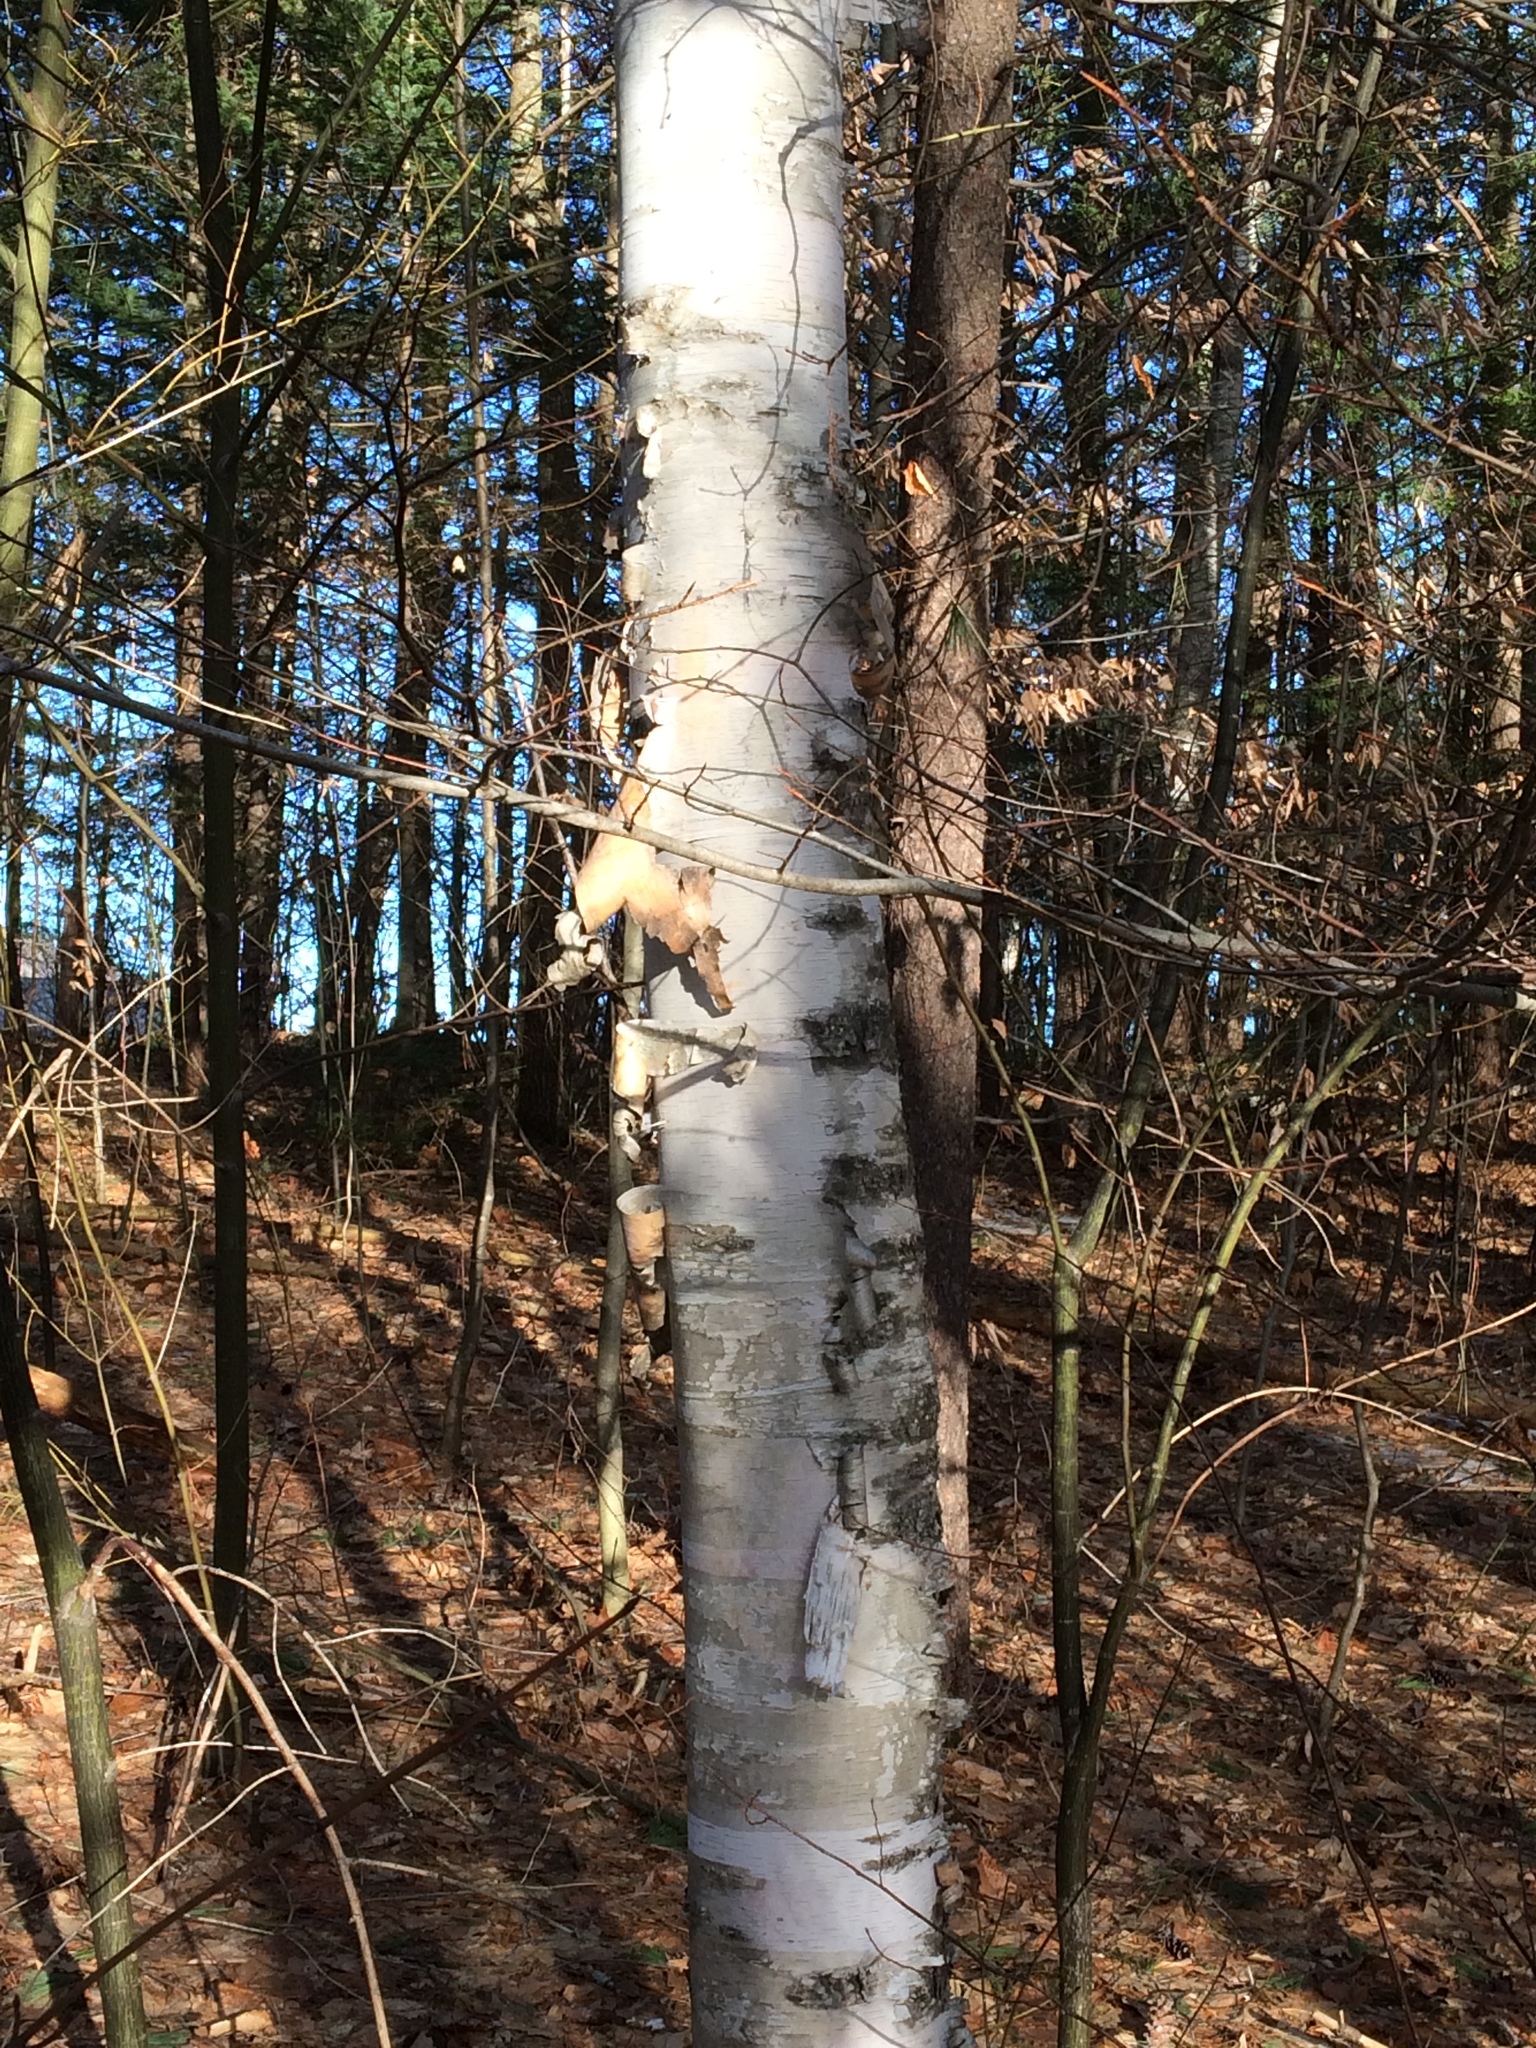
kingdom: Plantae
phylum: Tracheophyta
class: Magnoliopsida
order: Fagales
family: Betulaceae
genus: Betula
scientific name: Betula papyrifera
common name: Paper birch
